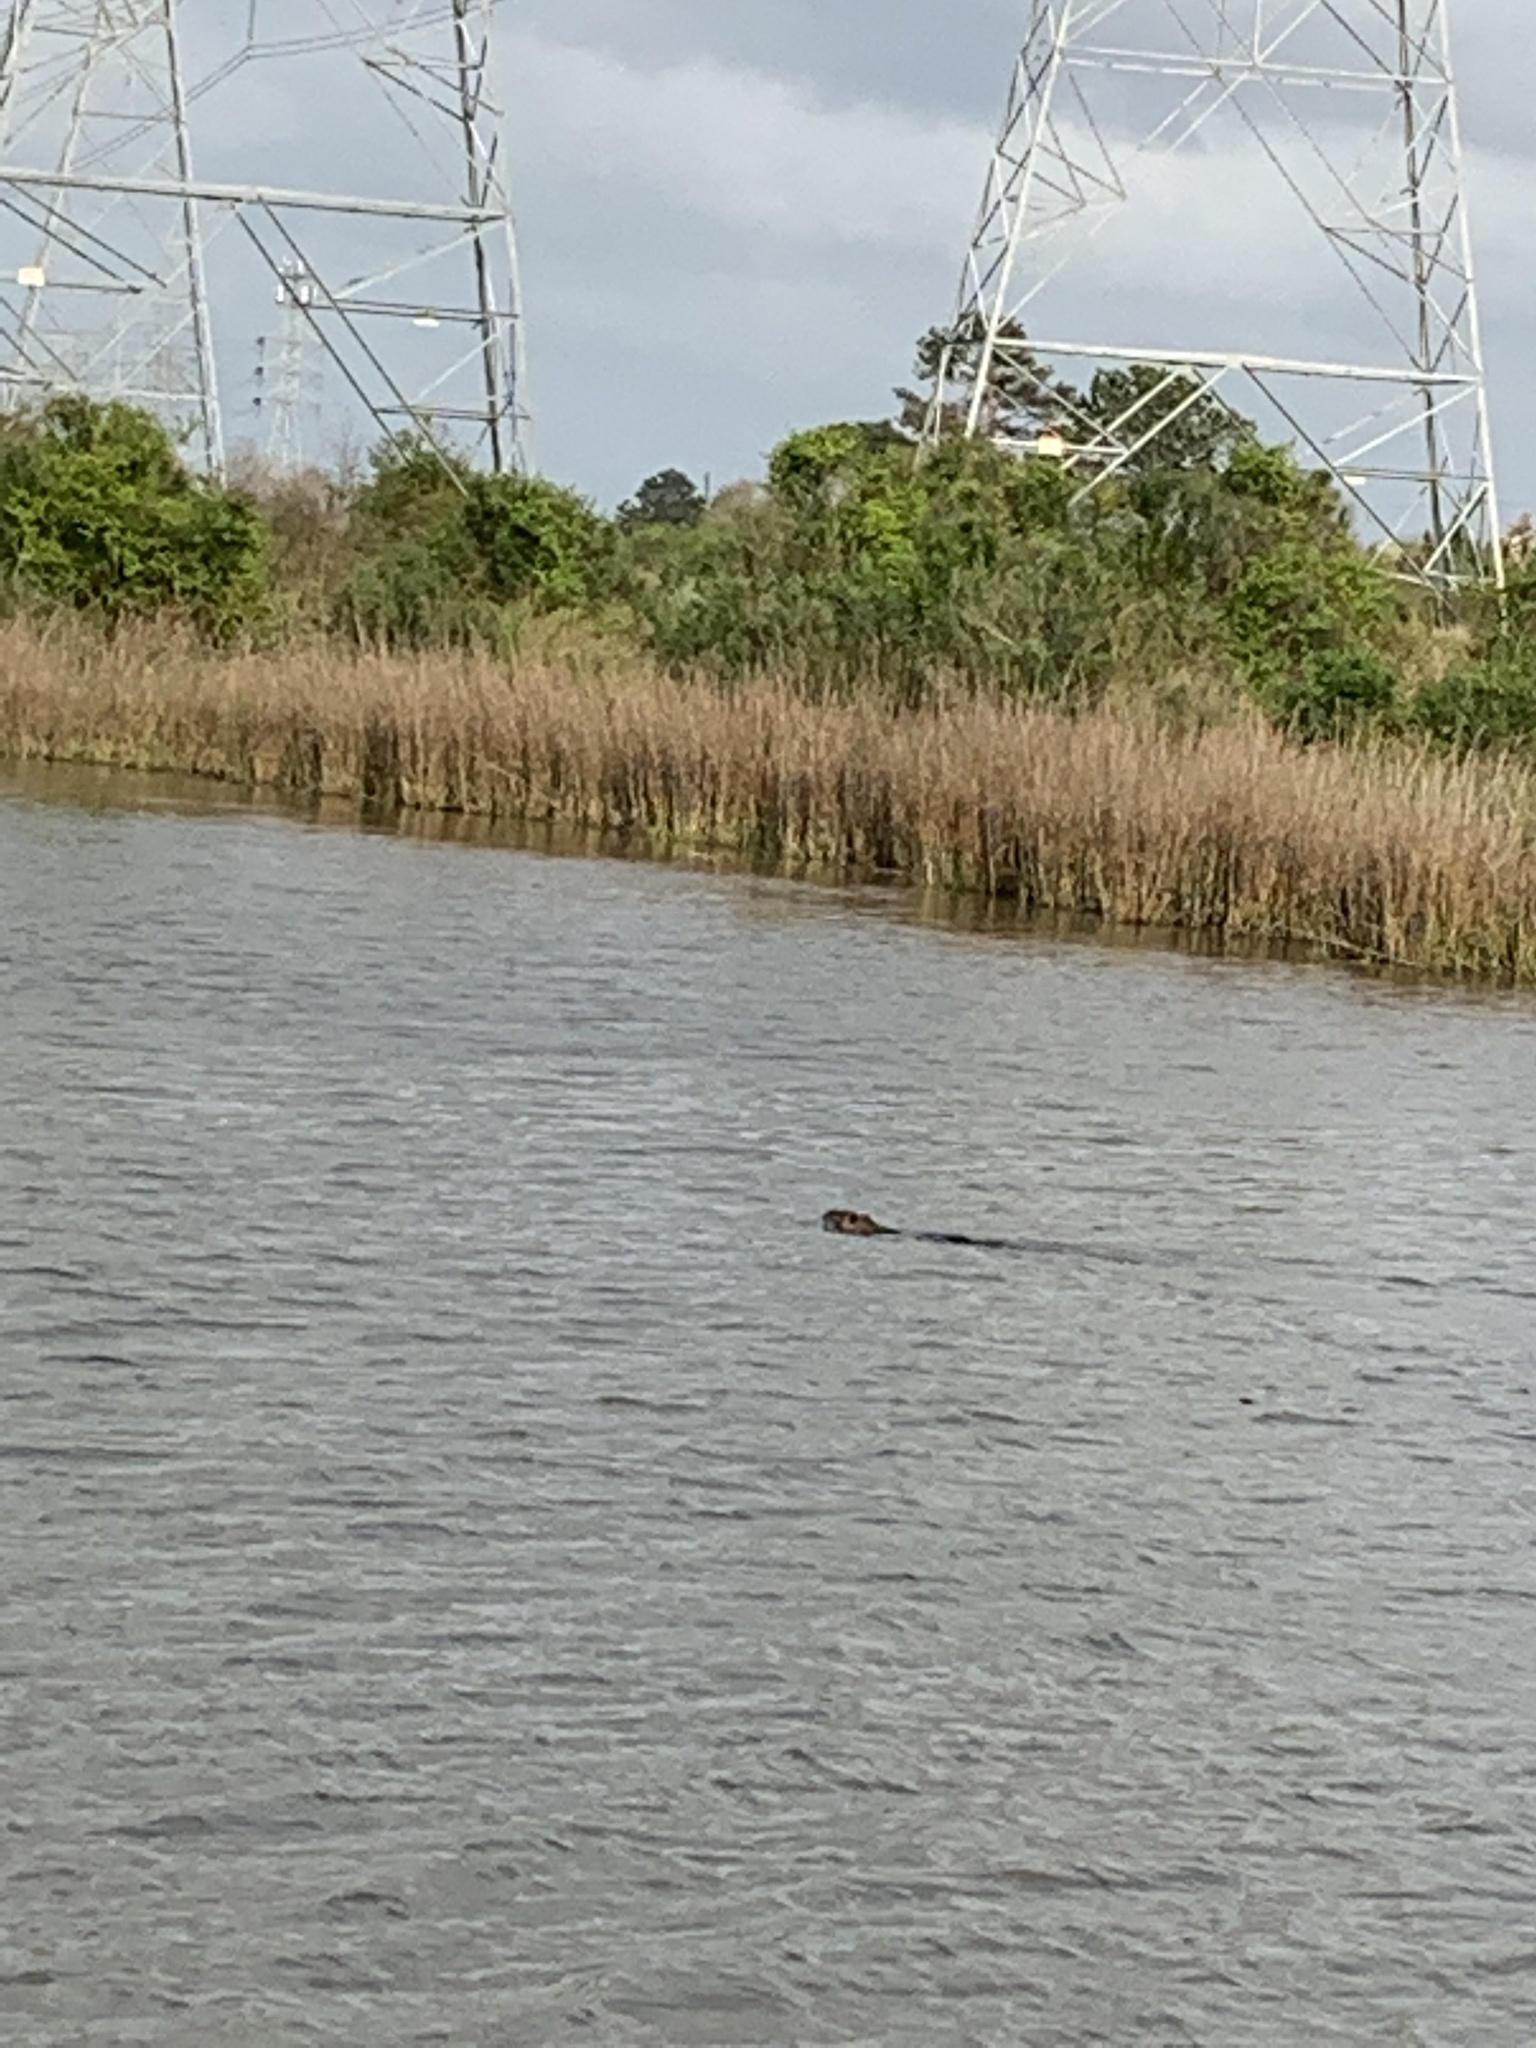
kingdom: Animalia
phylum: Chordata
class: Mammalia
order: Rodentia
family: Myocastoridae
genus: Myocastor
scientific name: Myocastor coypus
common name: Coypu
